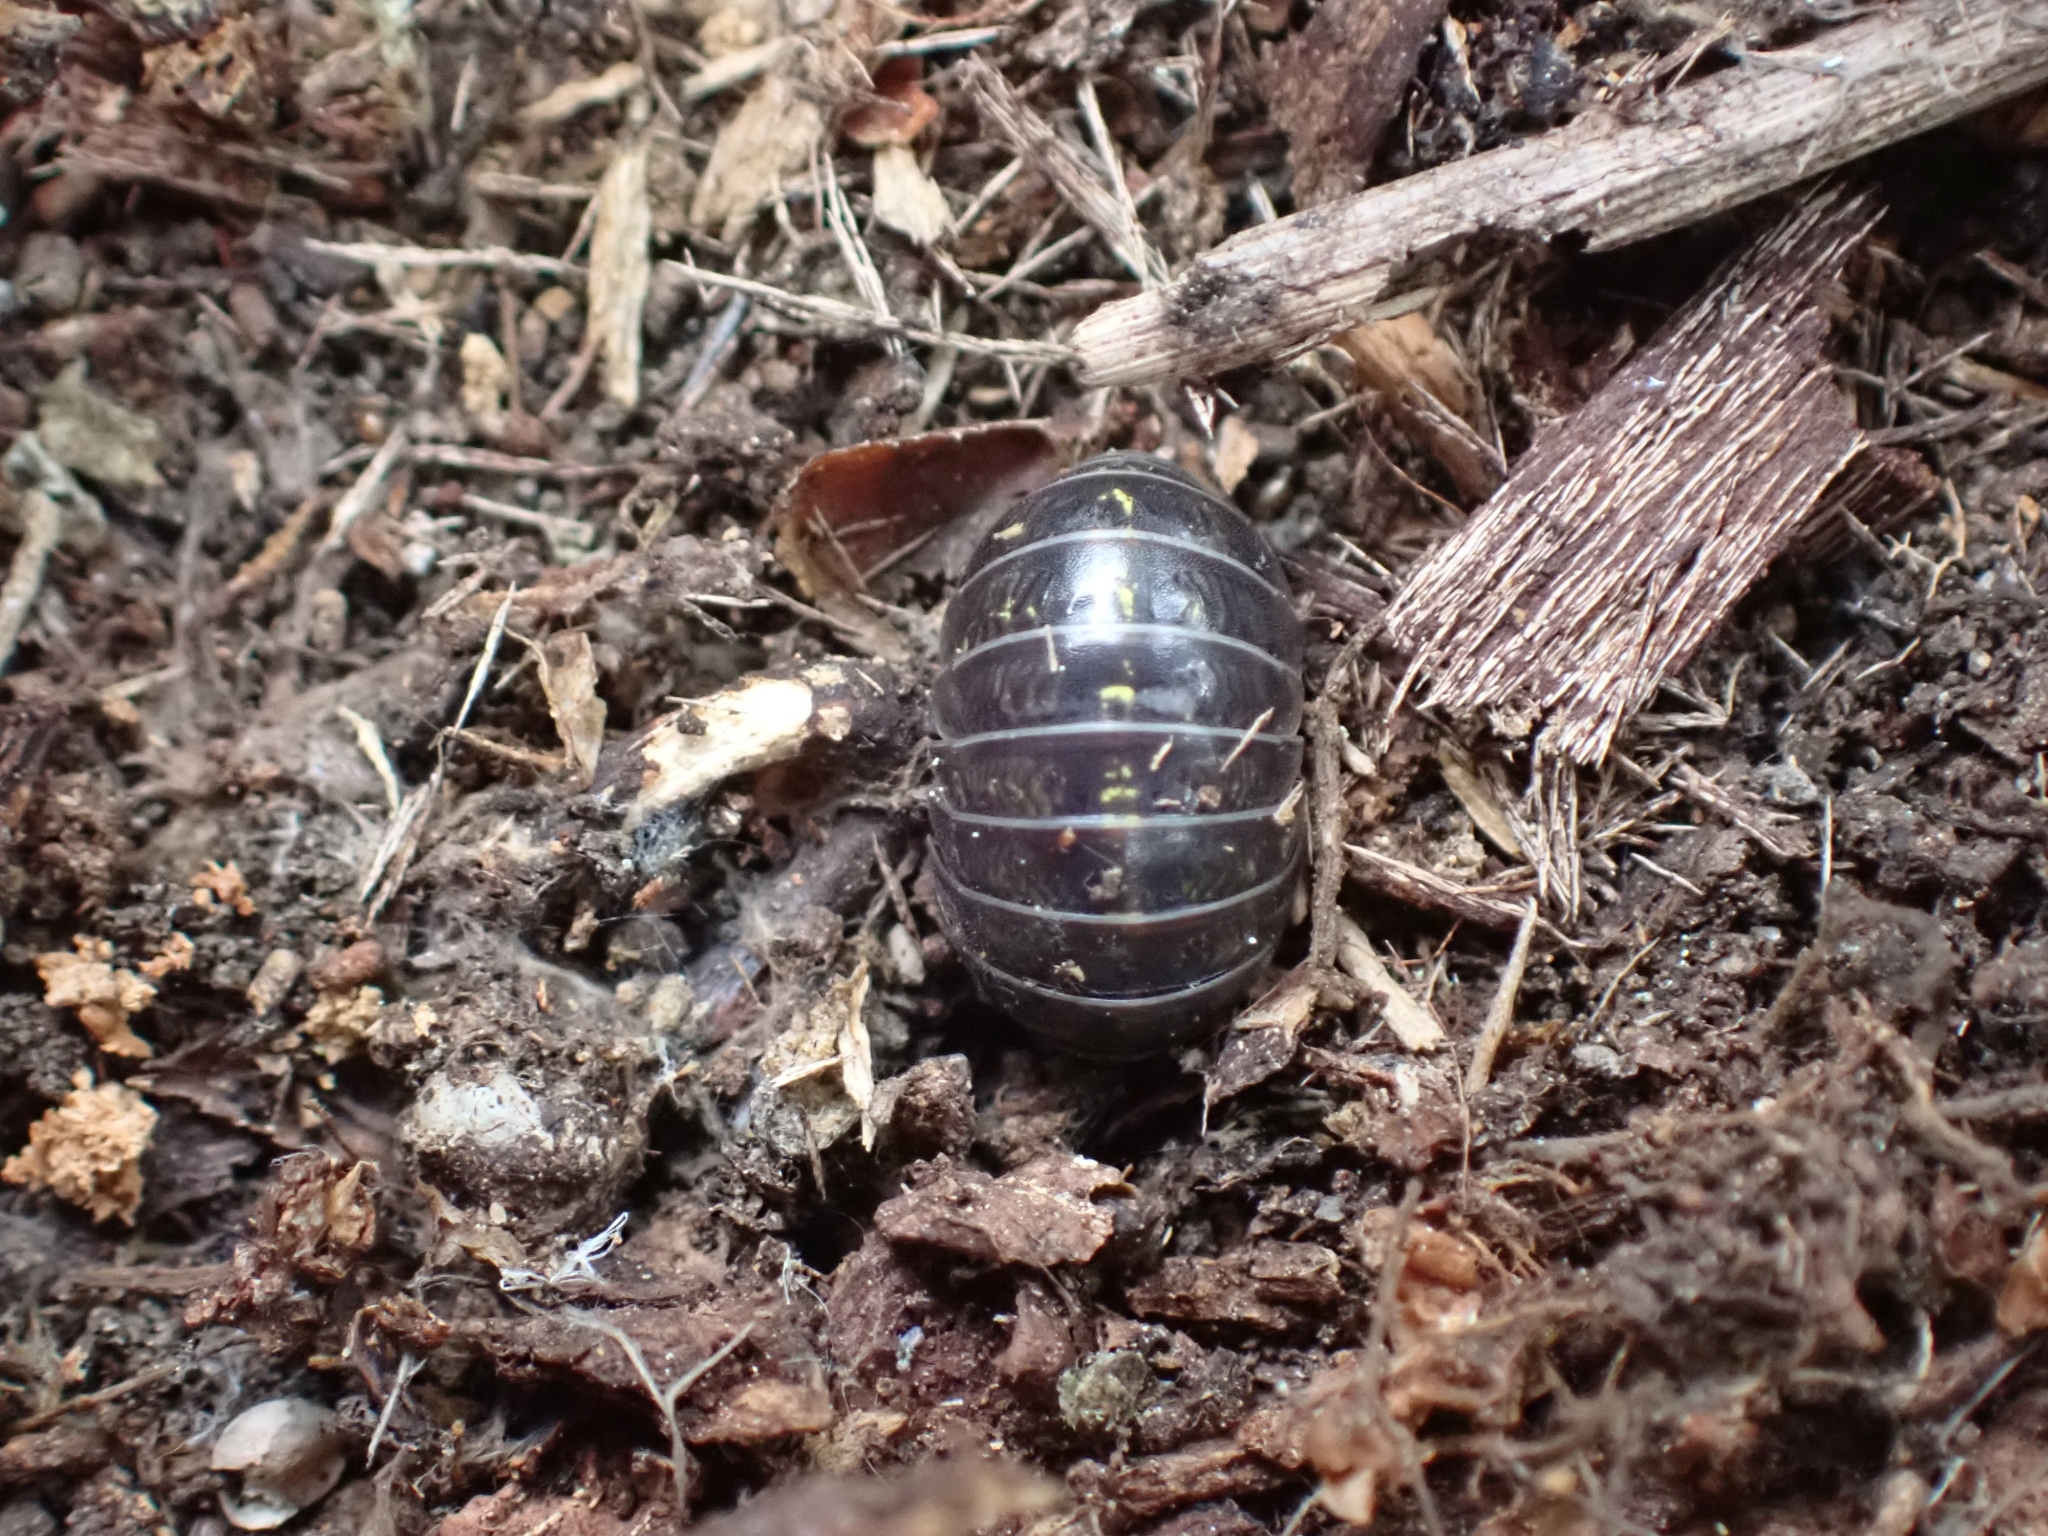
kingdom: Animalia
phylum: Arthropoda
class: Malacostraca
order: Isopoda
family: Armadillidiidae
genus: Armadillidium
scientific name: Armadillidium vulgare
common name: Common pill woodlouse
